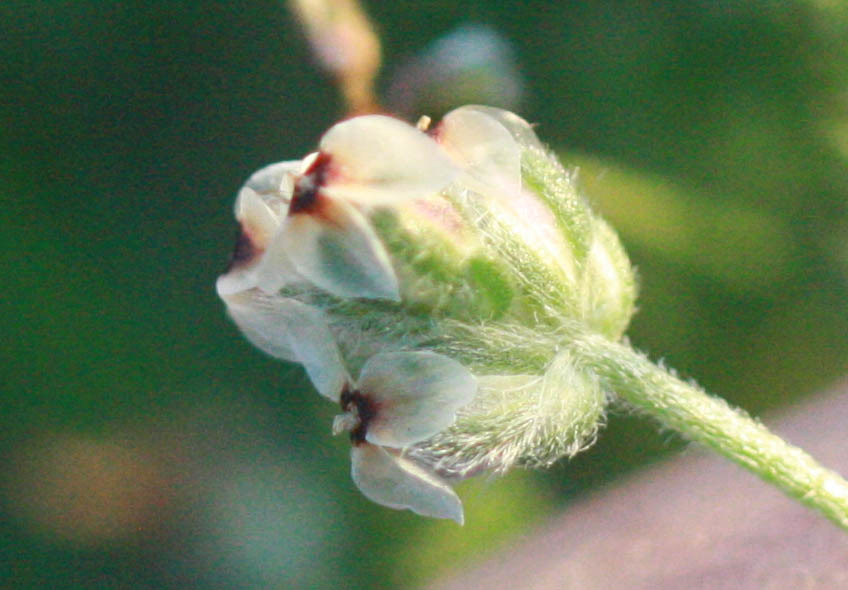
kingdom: Plantae
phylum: Tracheophyta
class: Magnoliopsida
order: Lamiales
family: Plantaginaceae
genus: Plantago
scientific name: Plantago erecta
